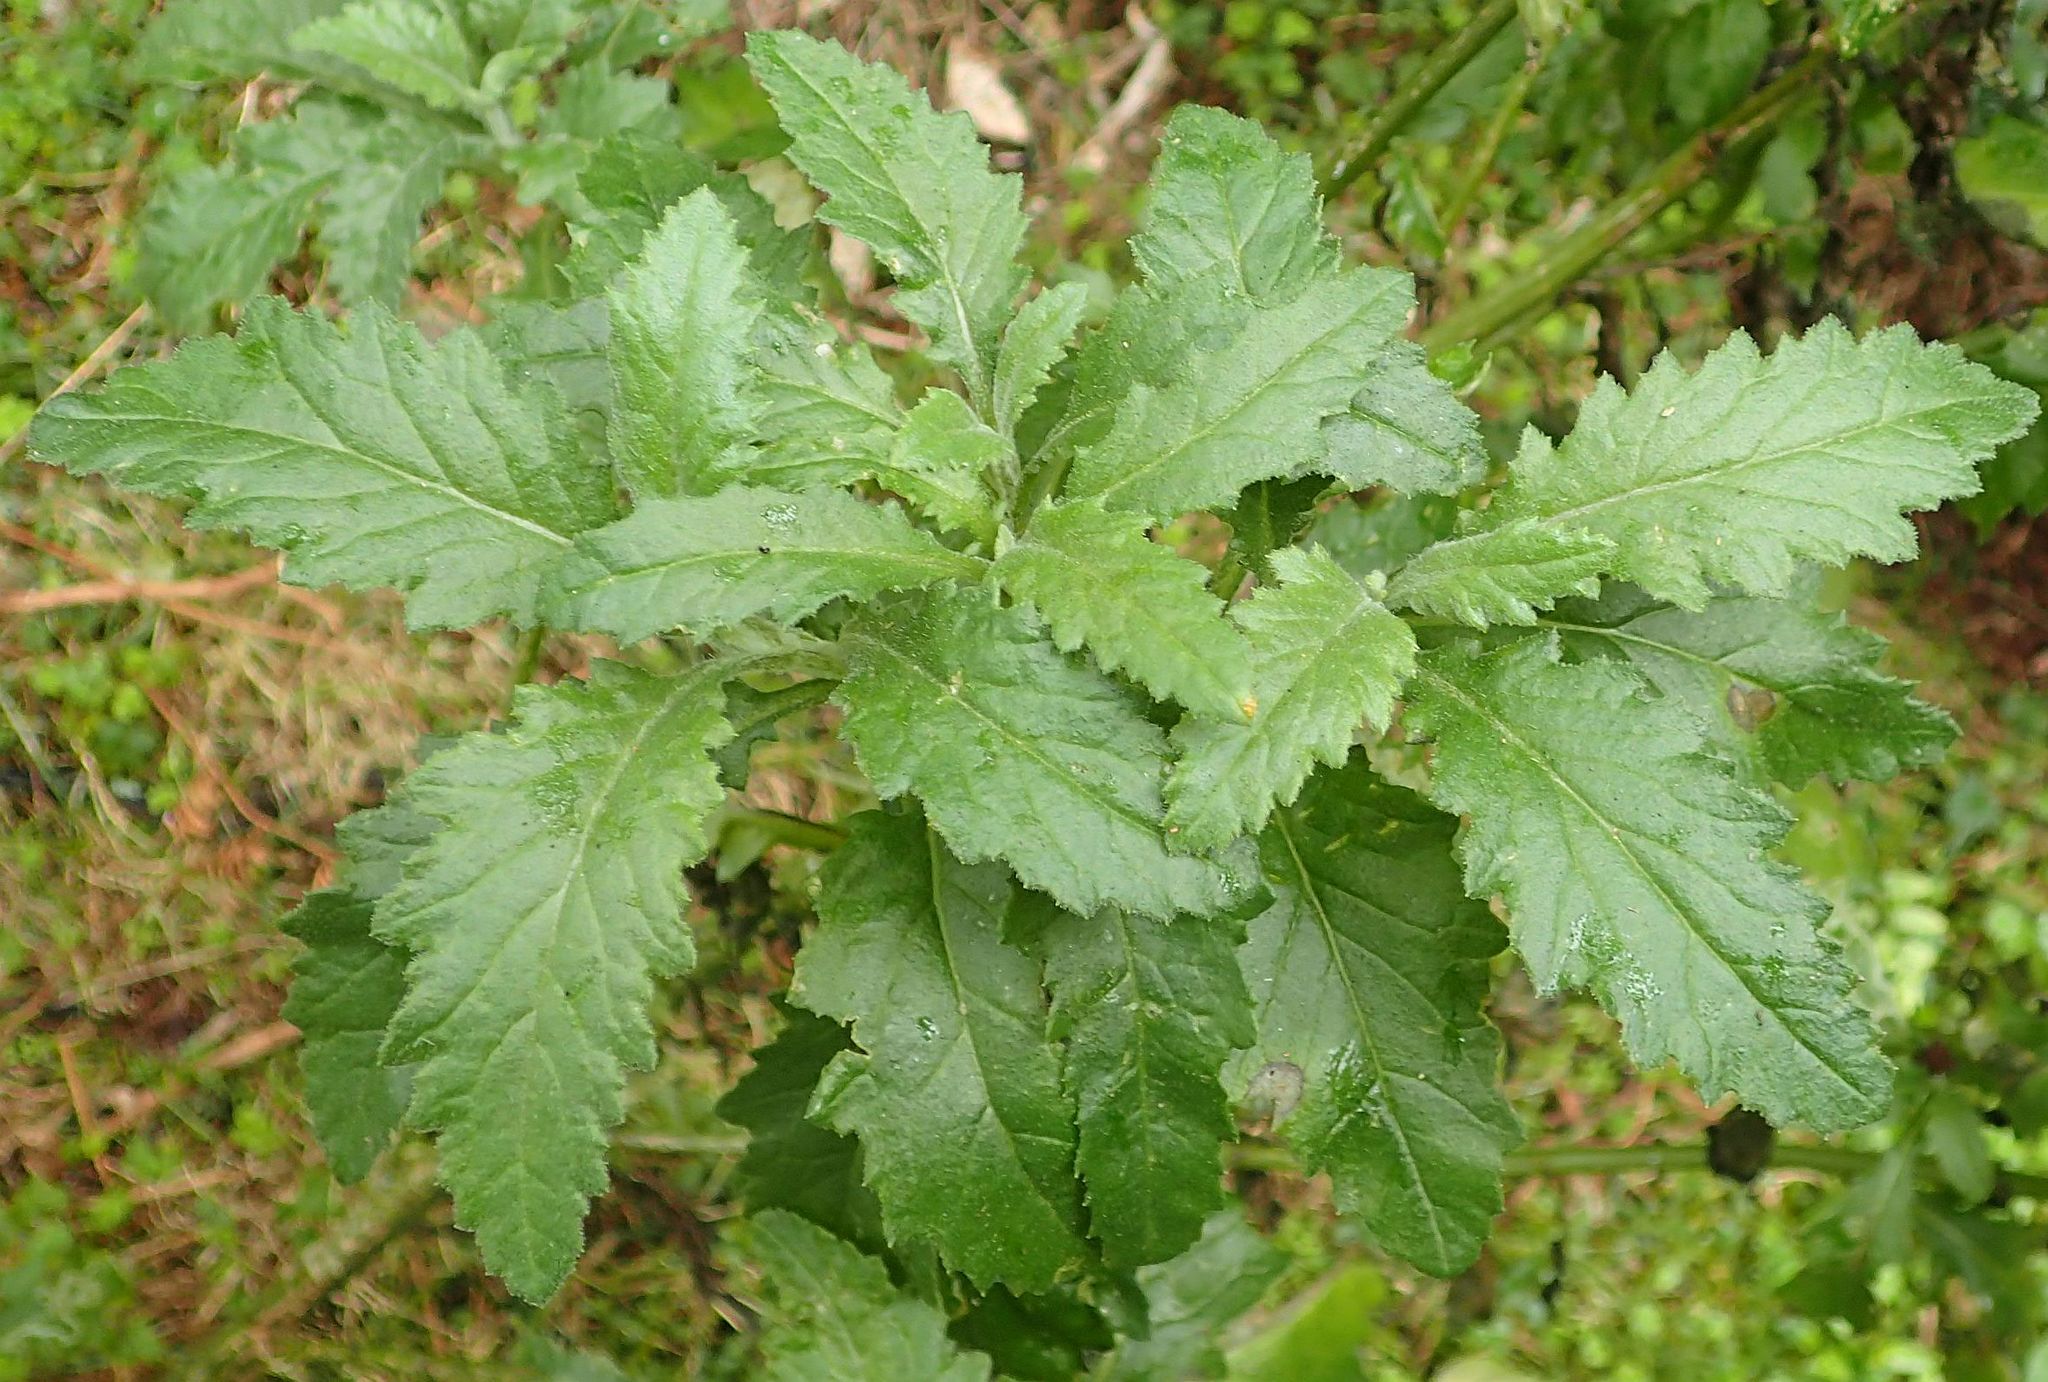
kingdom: Plantae
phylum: Tracheophyta
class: Magnoliopsida
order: Asterales
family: Asteraceae
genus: Senecio
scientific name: Senecio biserratus
